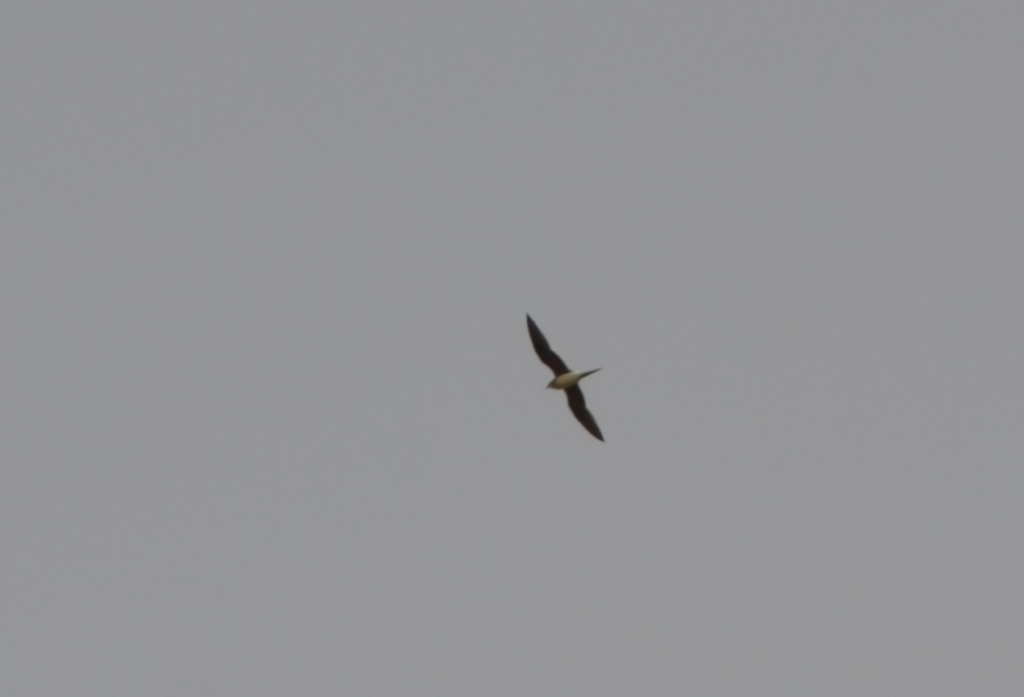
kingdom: Animalia
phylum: Chordata
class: Aves
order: Charadriiformes
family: Glareolidae
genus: Glareola
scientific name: Glareola pratincola
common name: Collared pratincole
